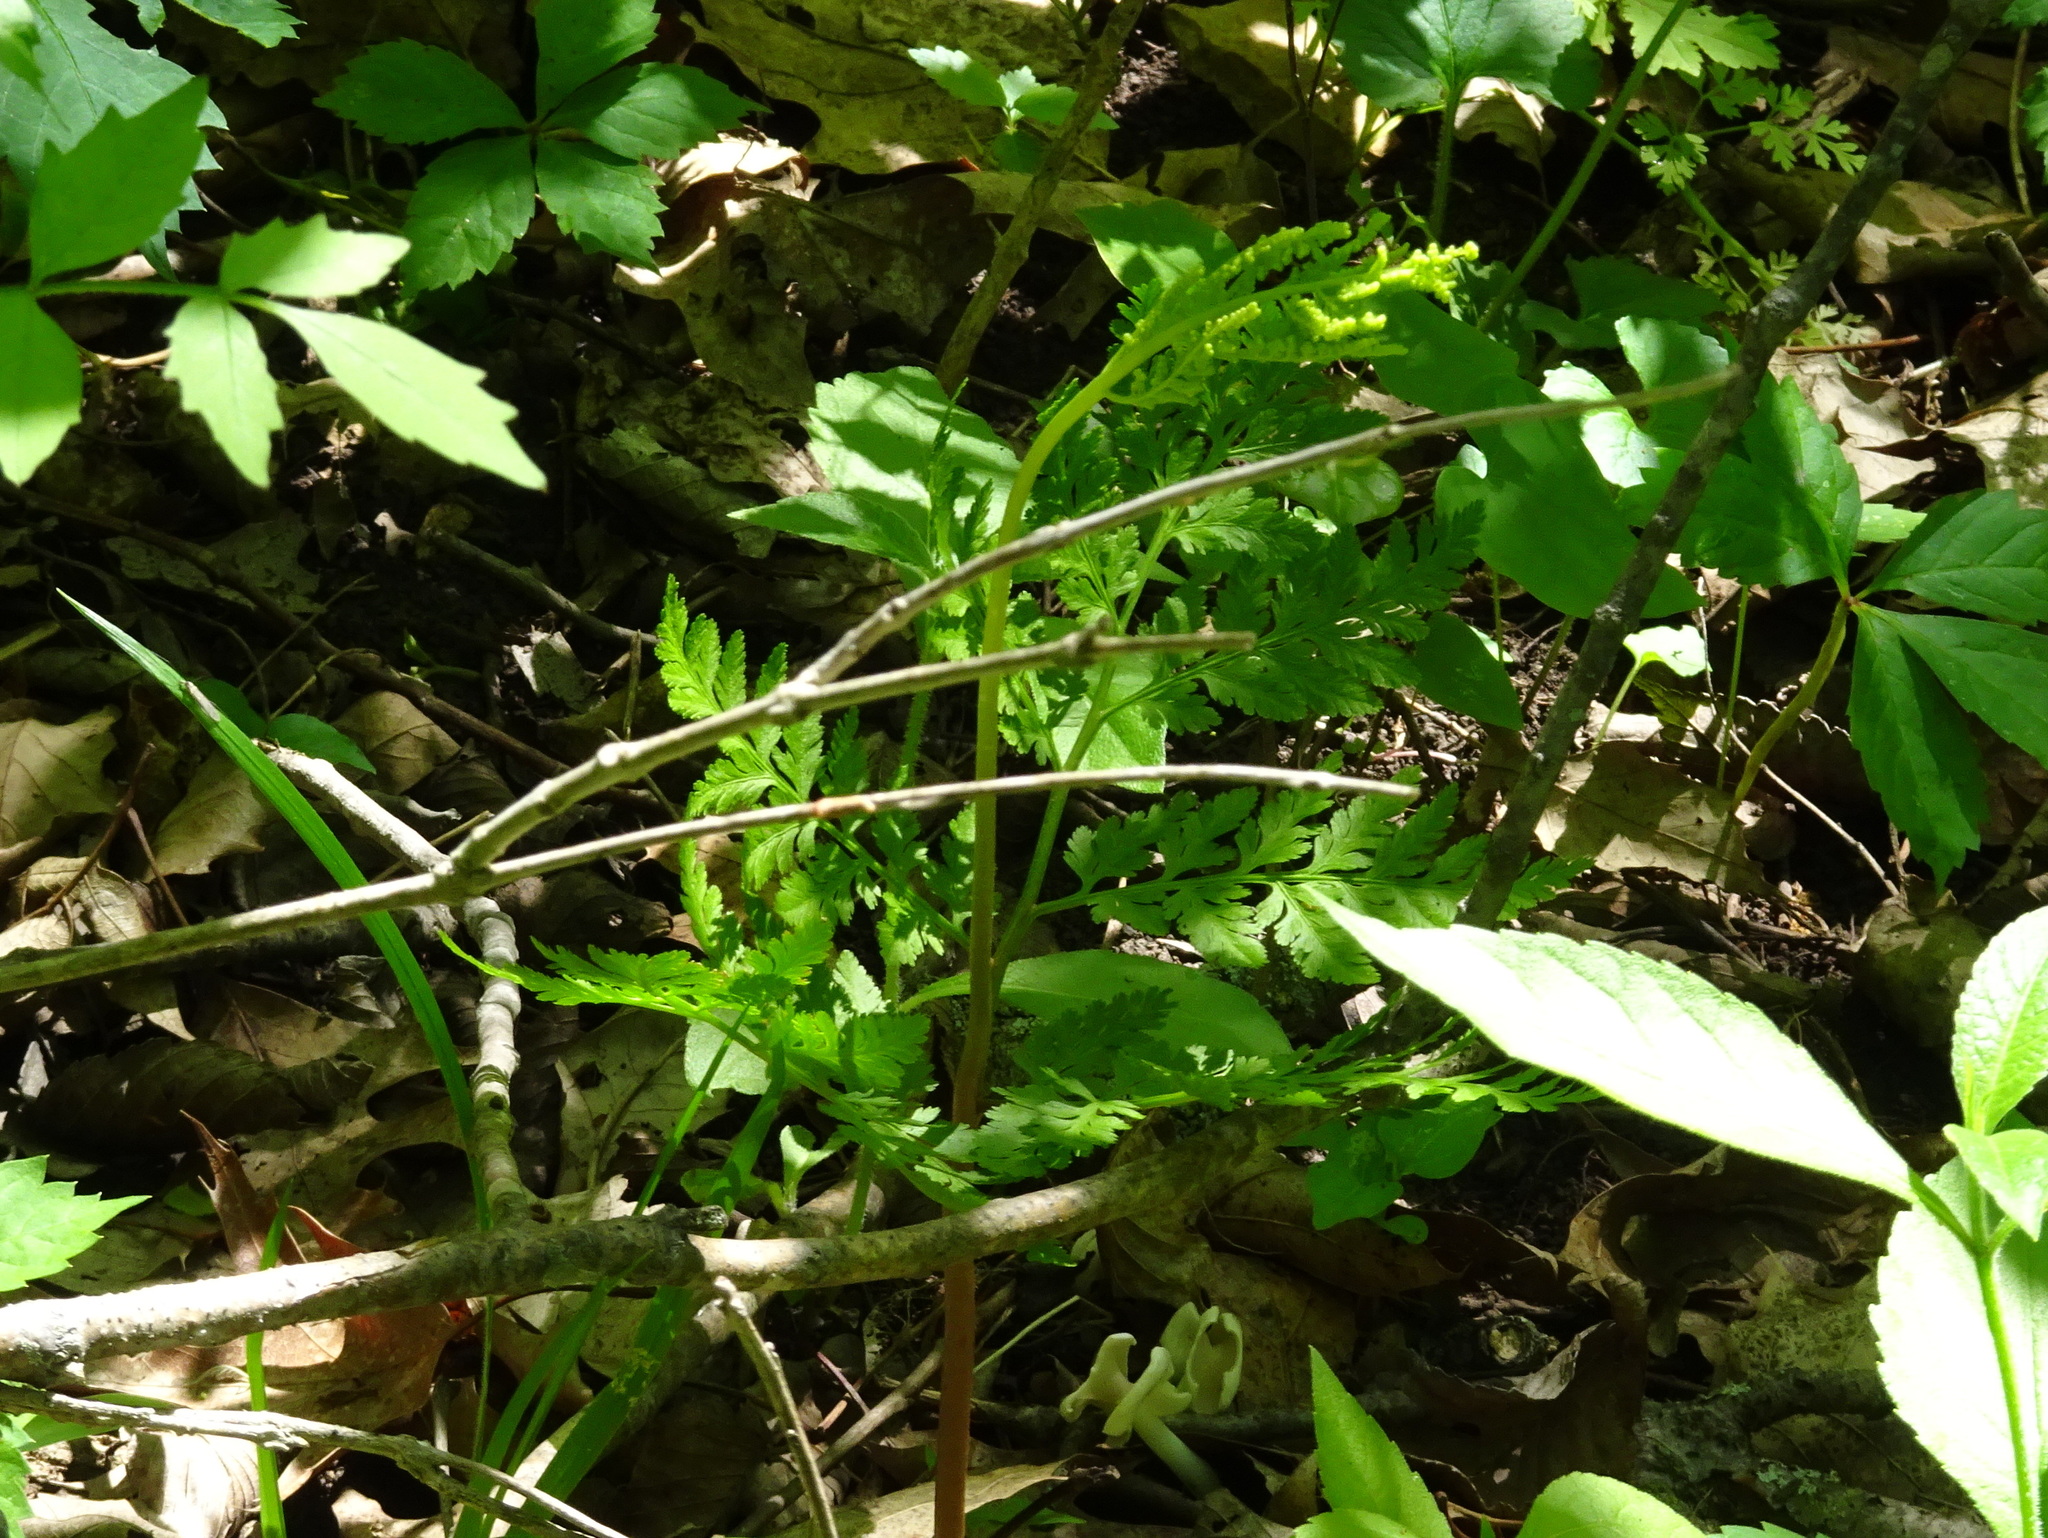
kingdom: Plantae
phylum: Tracheophyta
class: Polypodiopsida
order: Ophioglossales
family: Ophioglossaceae
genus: Botrypus
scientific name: Botrypus virginianus
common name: Common grapefern
